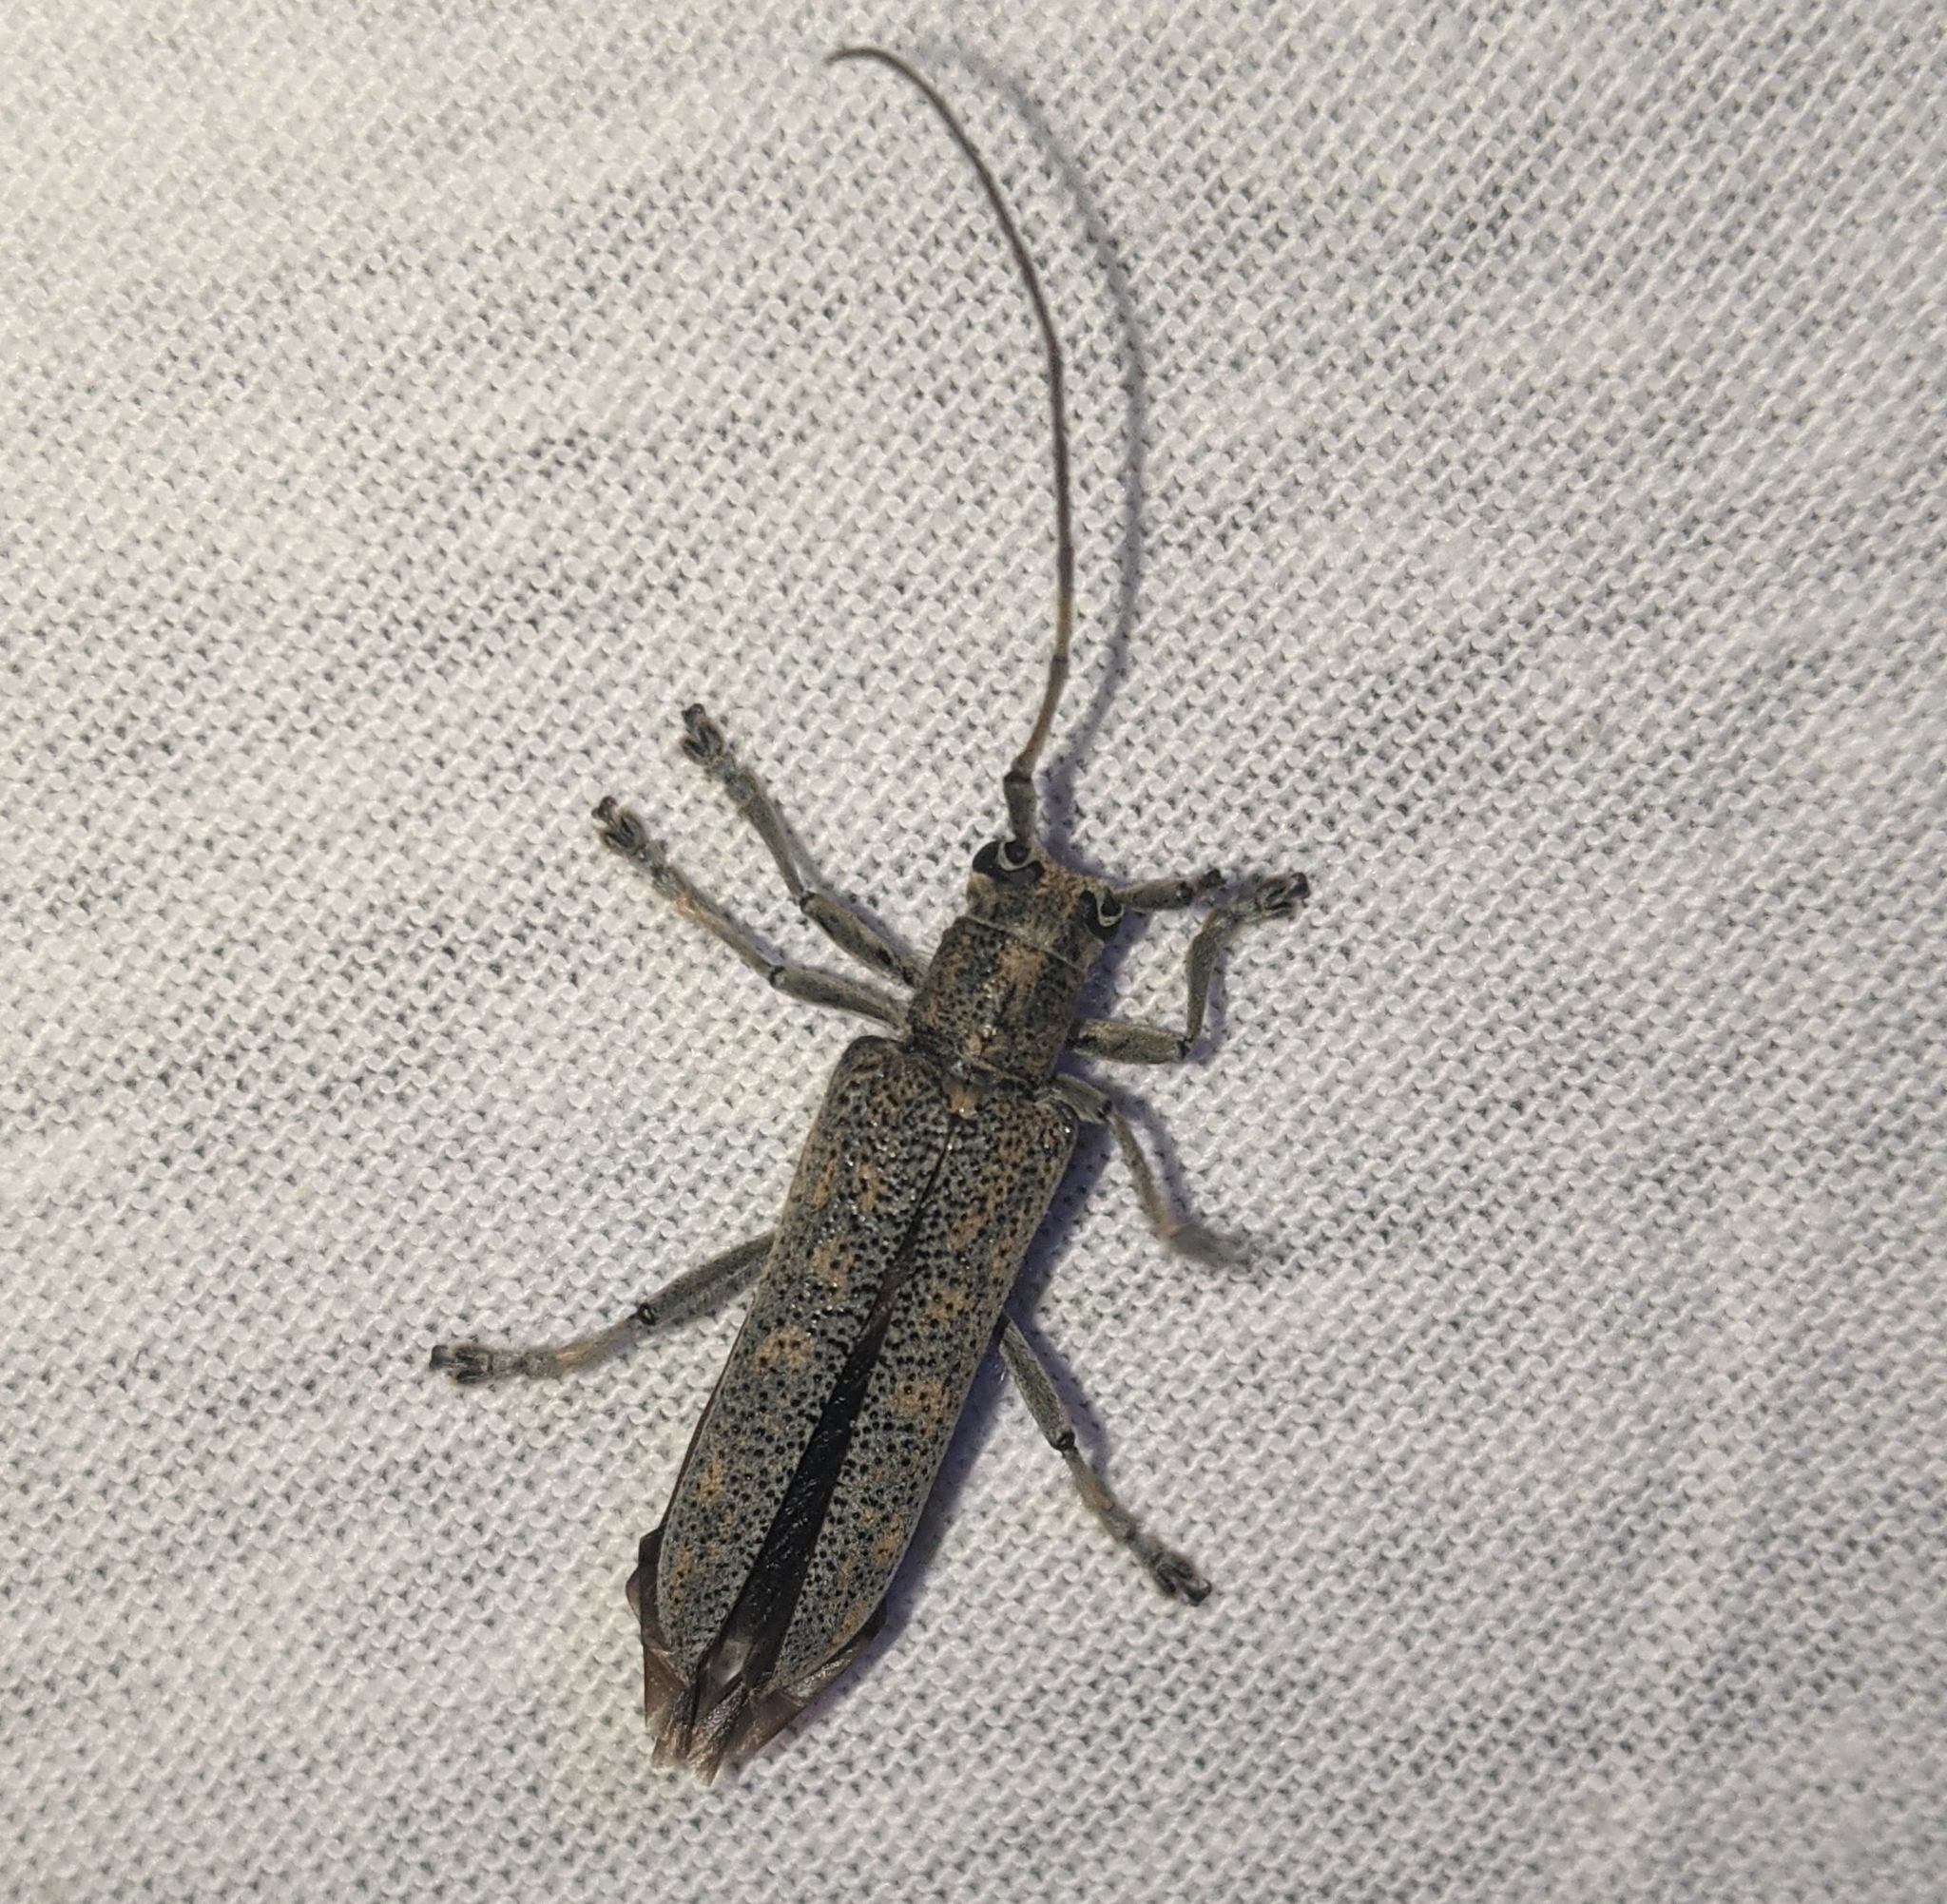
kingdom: Animalia
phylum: Arthropoda
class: Insecta
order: Coleoptera
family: Cerambycidae
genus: Saperda
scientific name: Saperda calcarata
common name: Poplar borer
